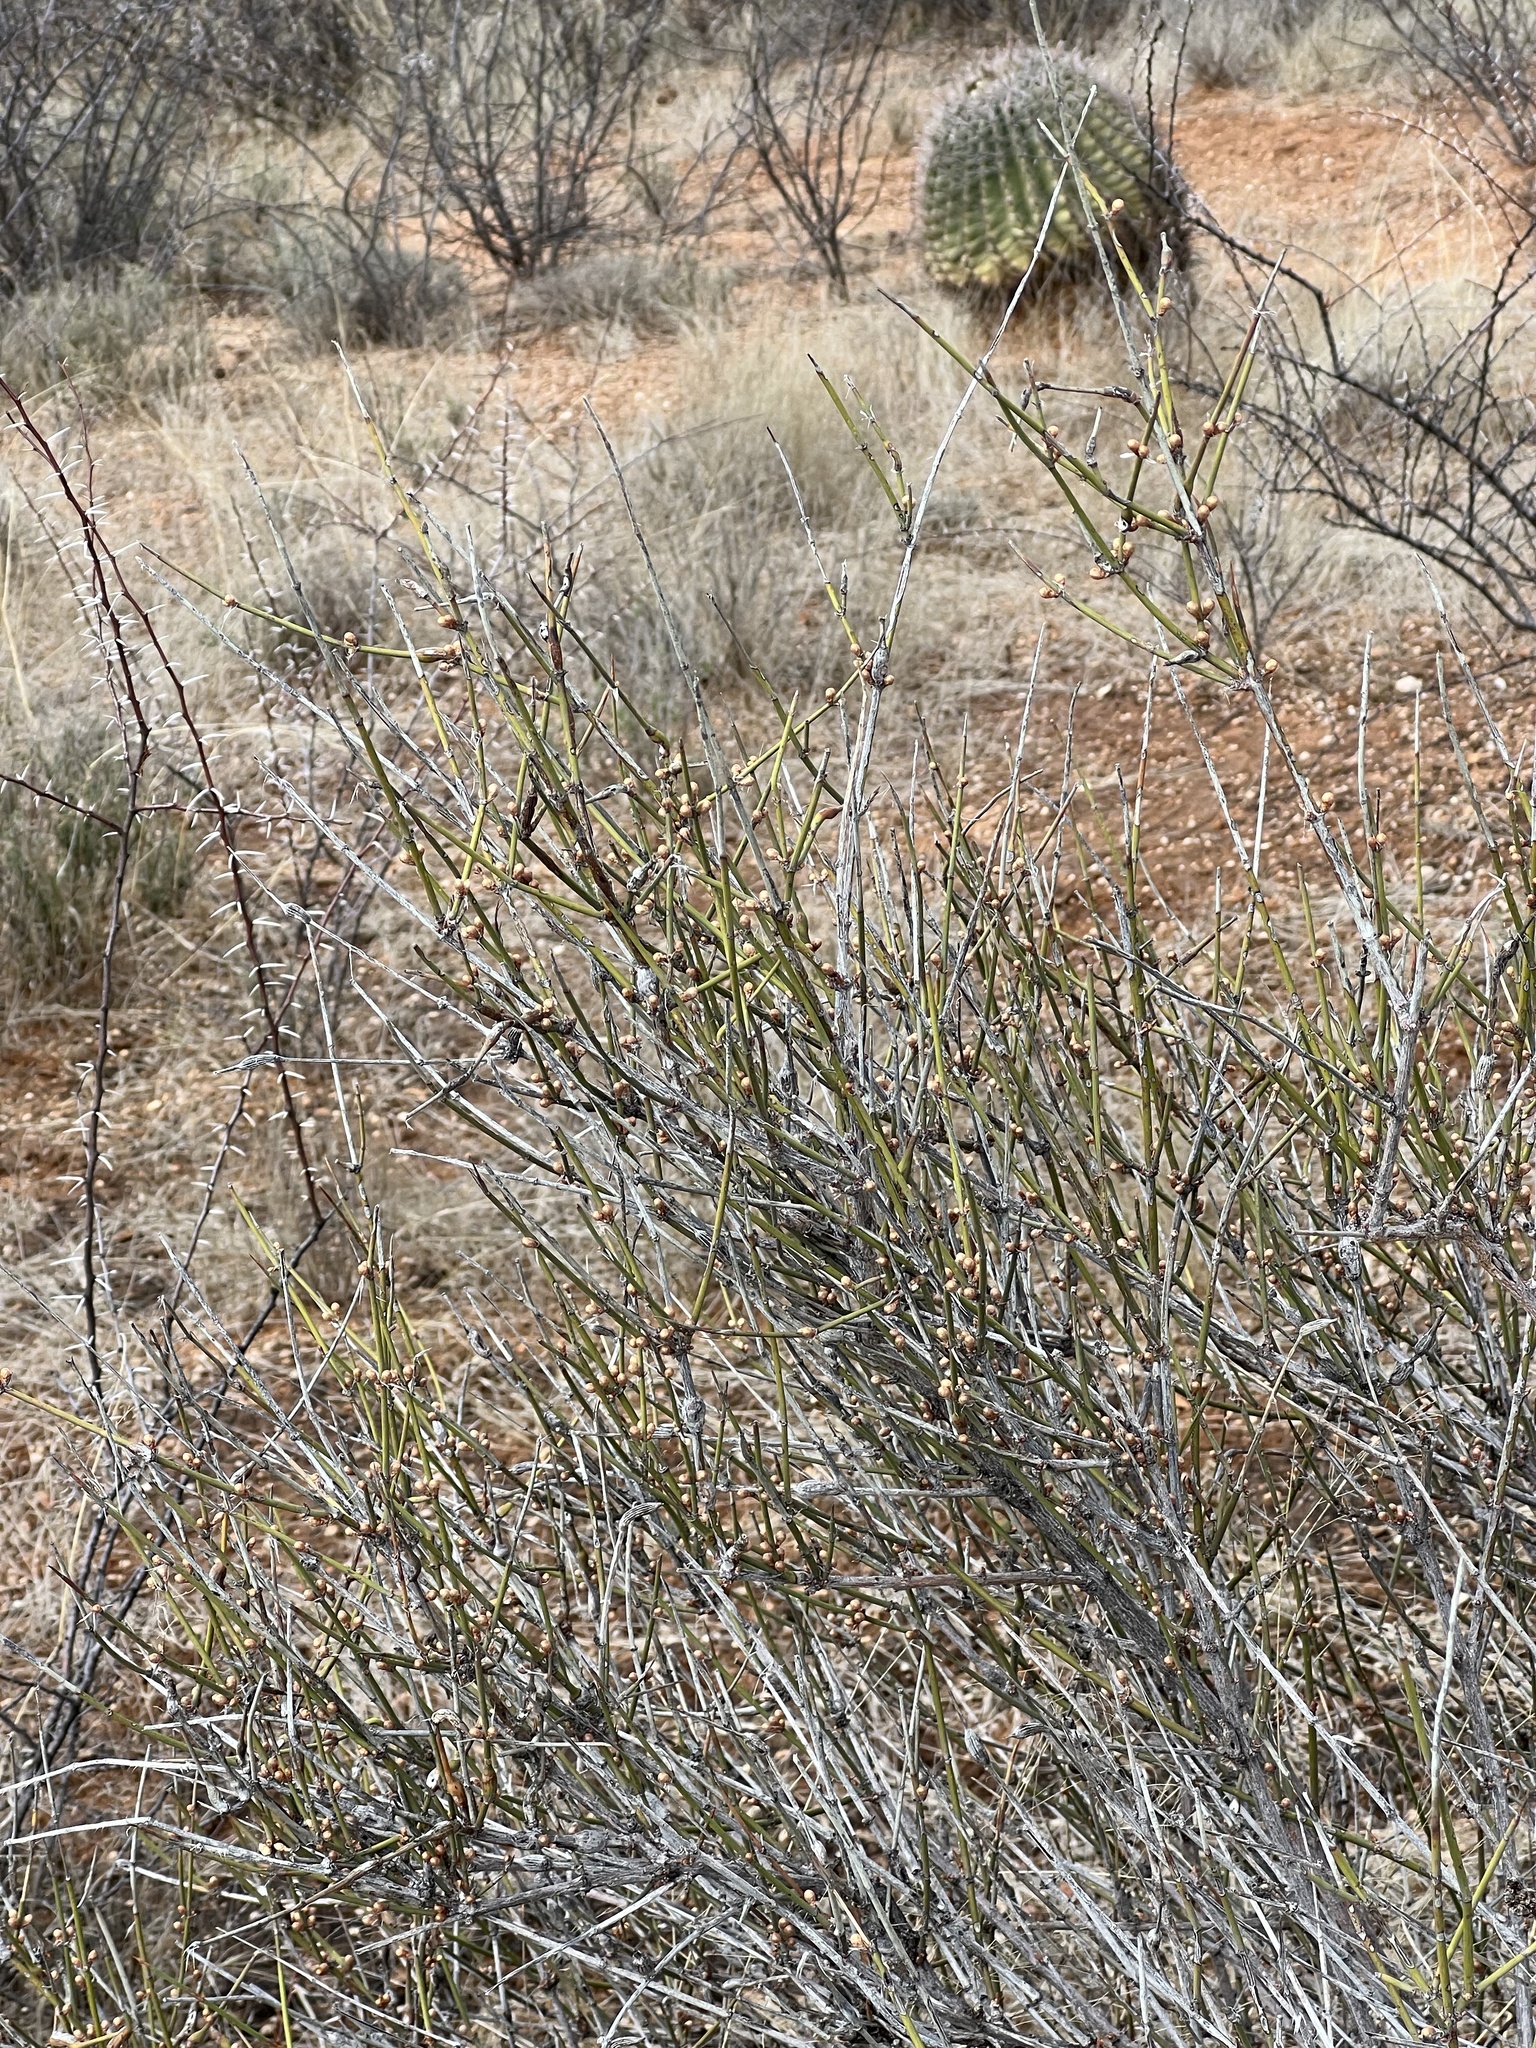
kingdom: Plantae
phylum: Tracheophyta
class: Gnetopsida
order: Ephedrales
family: Ephedraceae
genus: Ephedra
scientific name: Ephedra trifurca
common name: Mexican-tea
